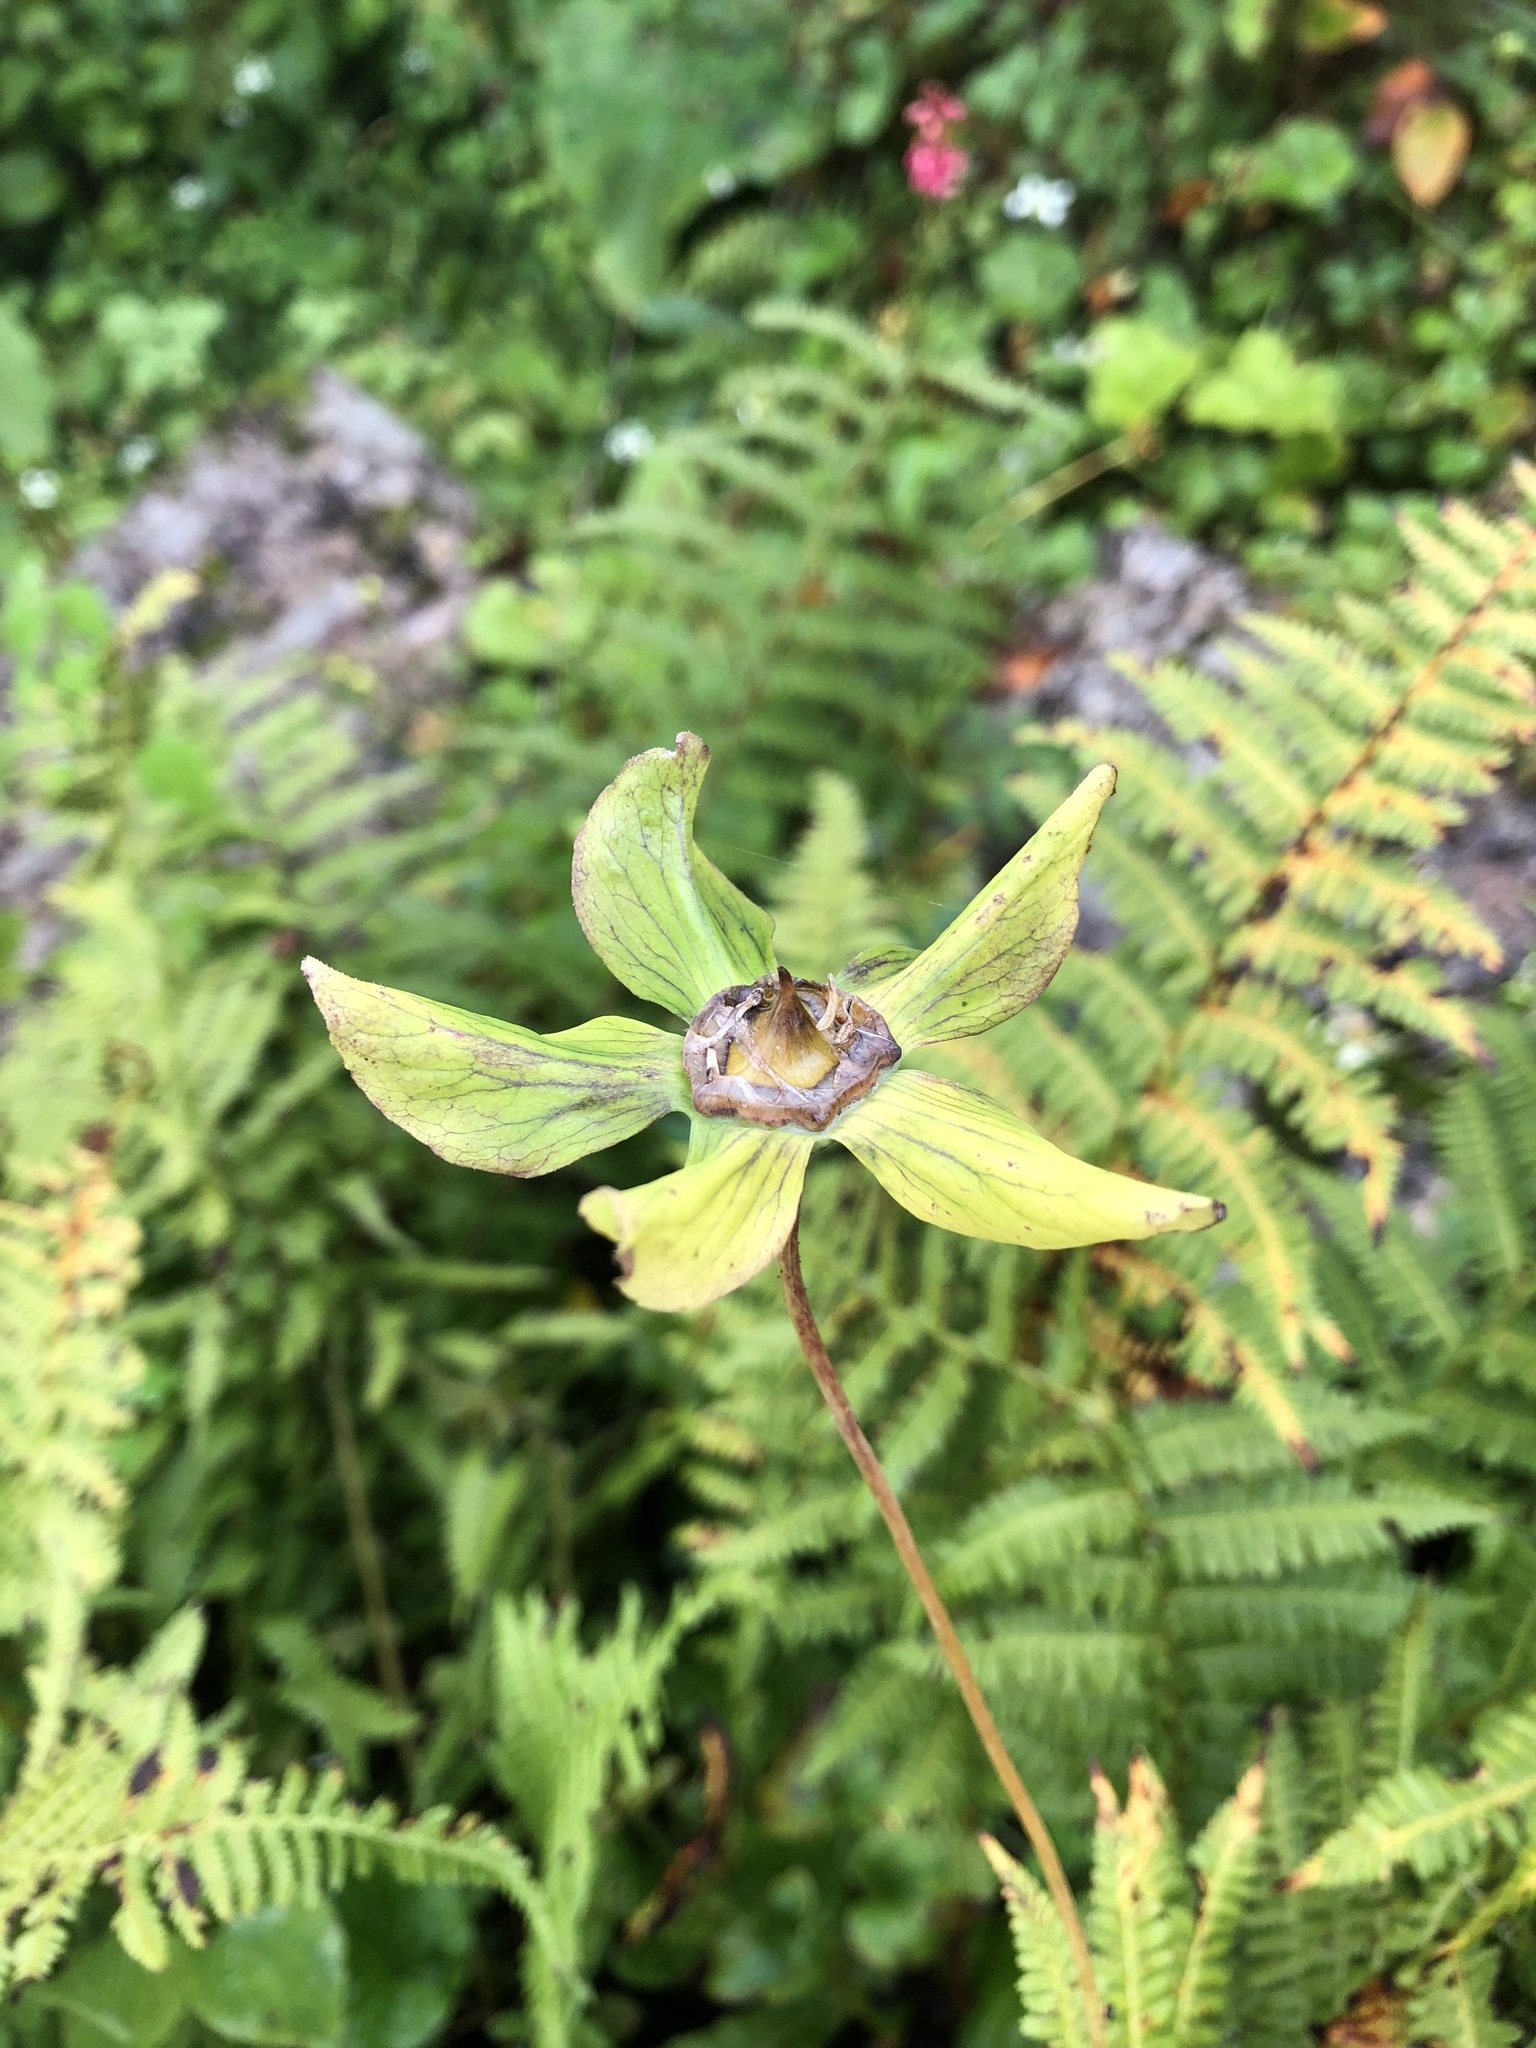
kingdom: Plantae
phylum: Tracheophyta
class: Magnoliopsida
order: Asterales
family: Campanulaceae
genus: Codonopsis
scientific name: Codonopsis rotundifolia
